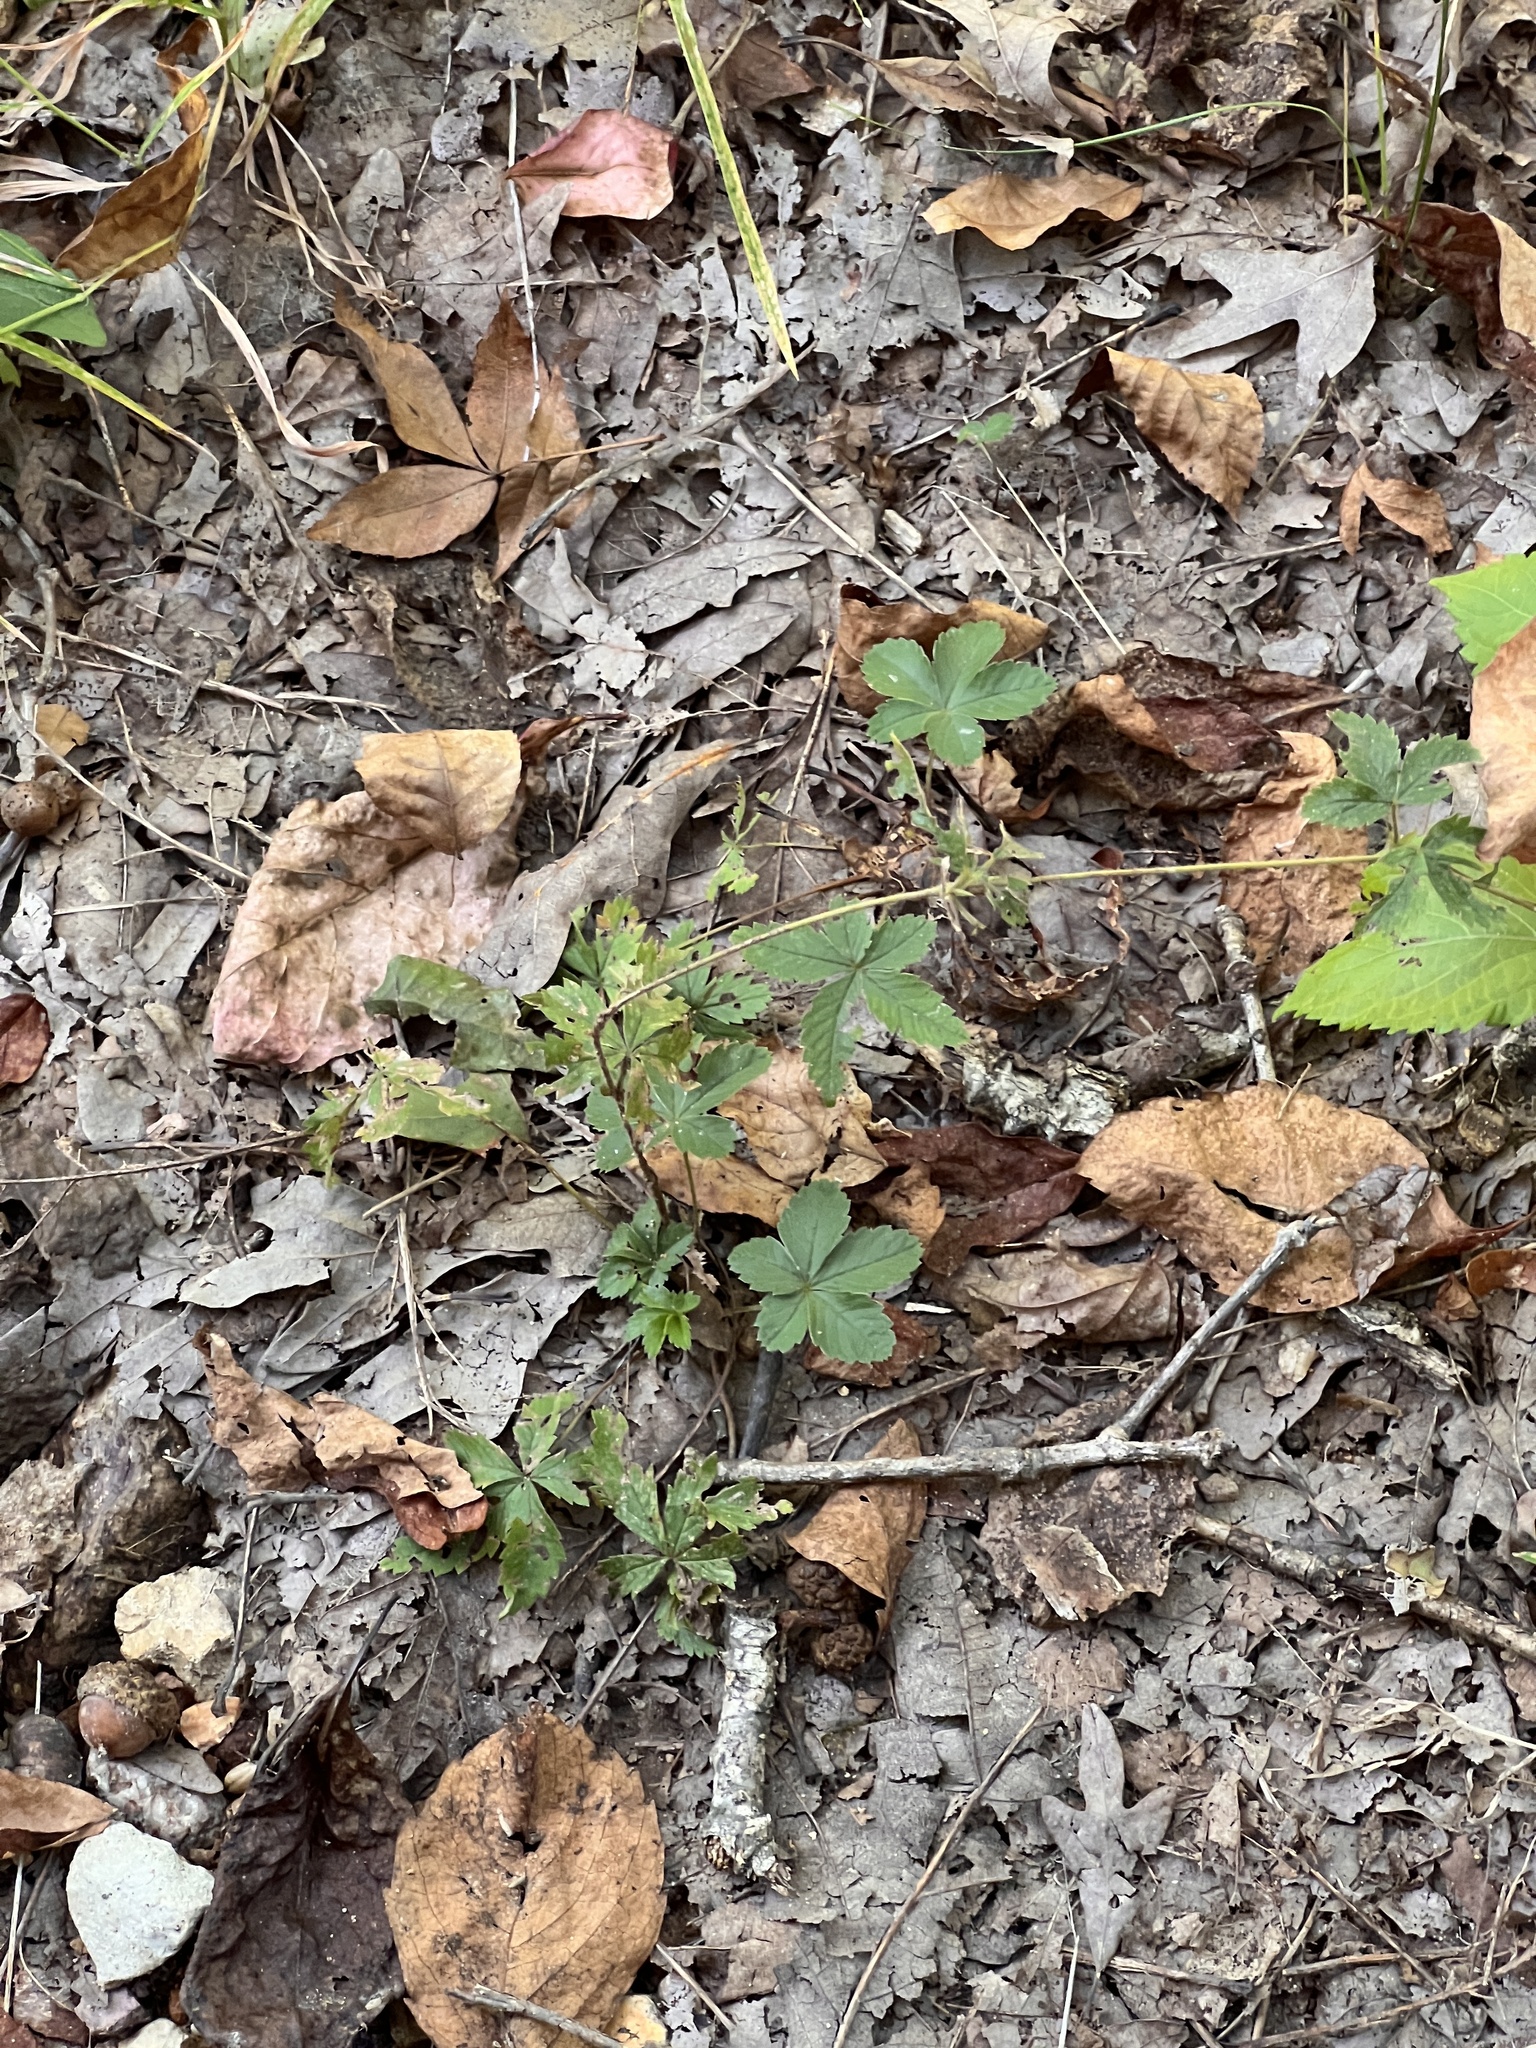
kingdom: Plantae
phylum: Tracheophyta
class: Magnoliopsida
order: Rosales
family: Rosaceae
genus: Potentilla
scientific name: Potentilla canadensis
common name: Canada cinquefoil
